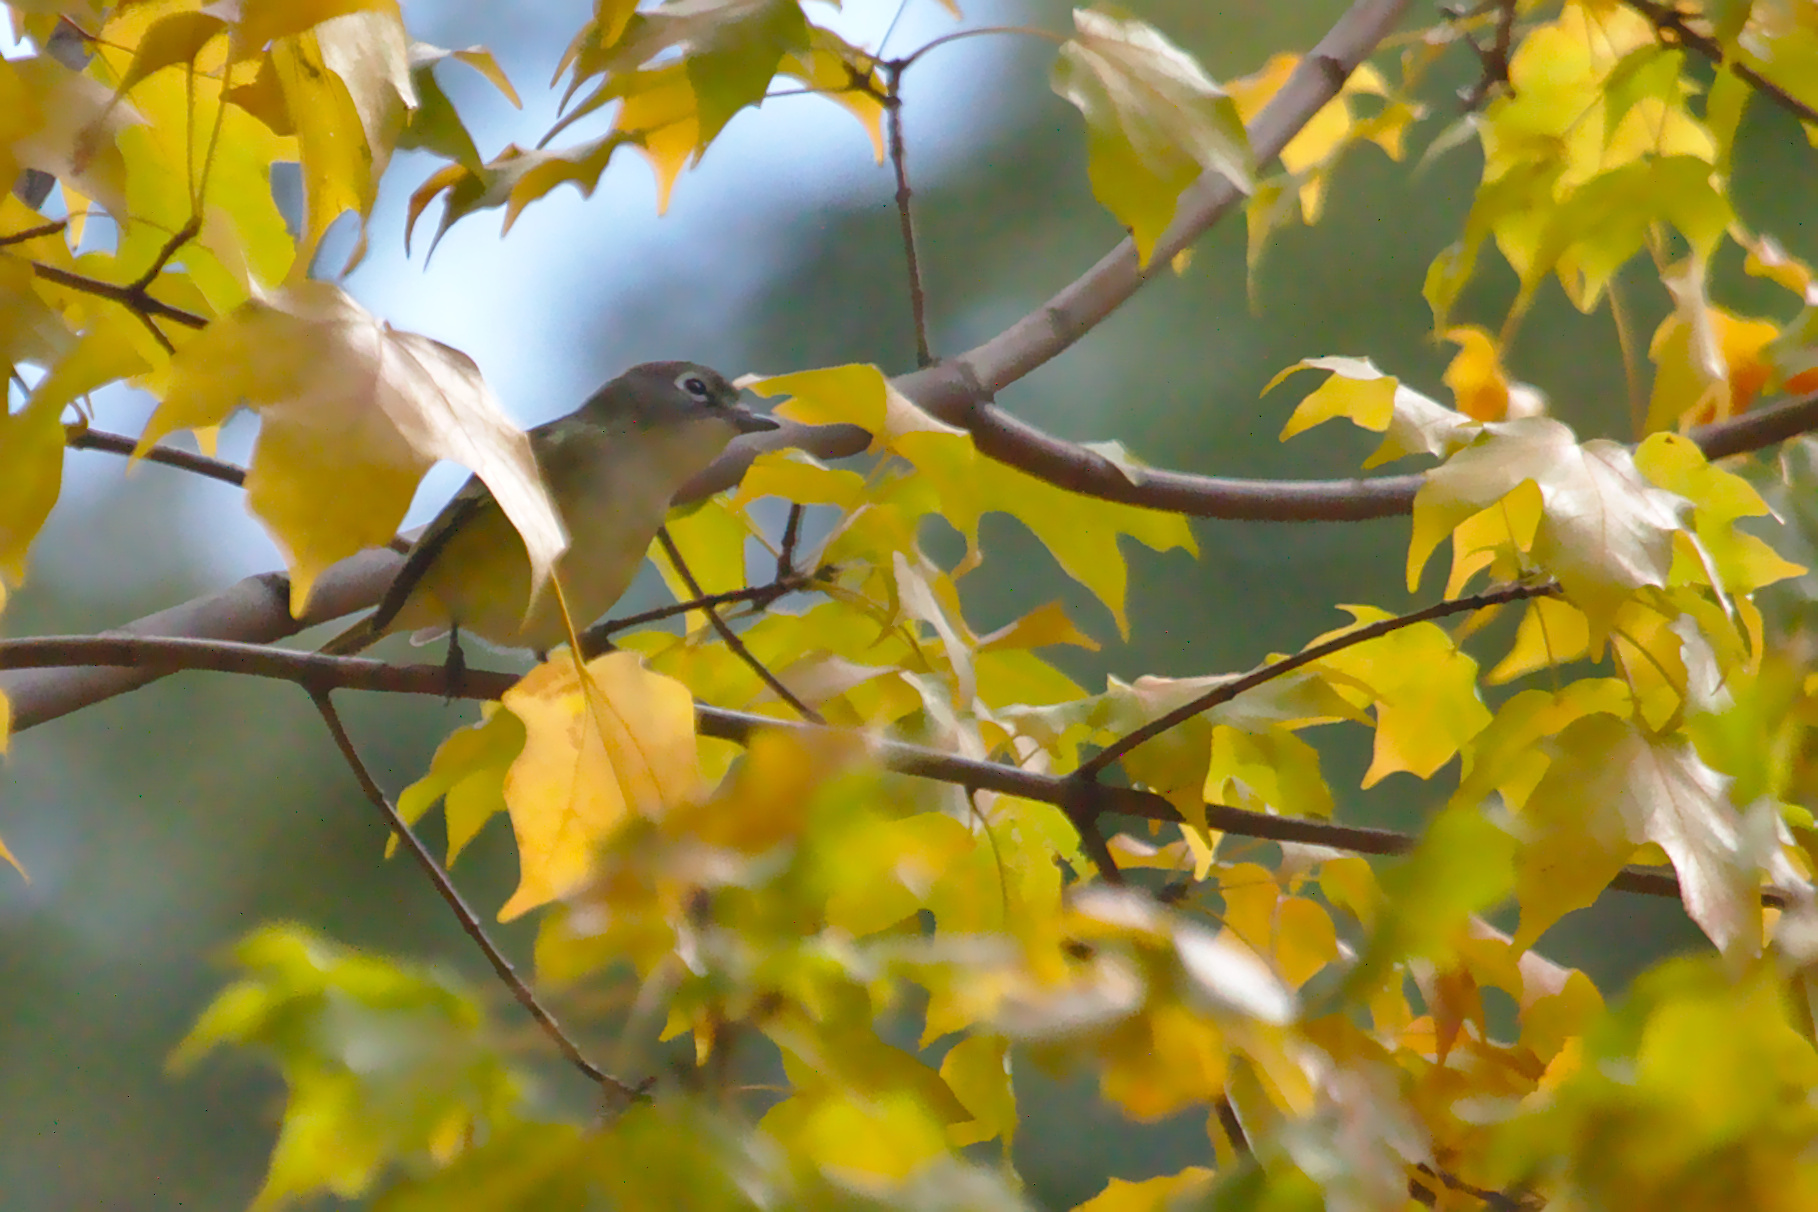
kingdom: Animalia
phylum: Chordata
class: Aves
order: Passeriformes
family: Vireonidae
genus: Vireo
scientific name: Vireo solitarius
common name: Blue-headed vireo
